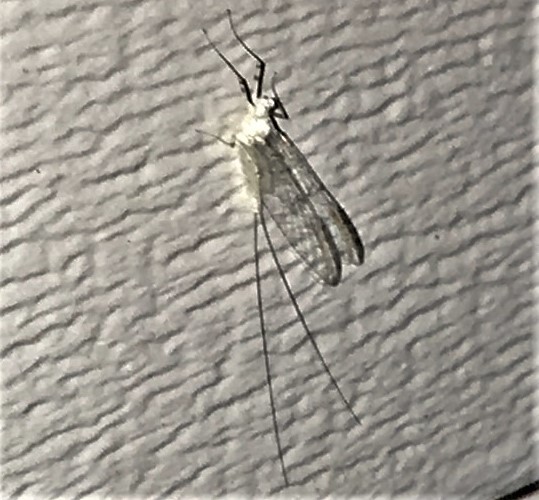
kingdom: Animalia
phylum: Arthropoda
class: Insecta
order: Ephemeroptera
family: Heptageniidae
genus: Stenonema
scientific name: Stenonema femoratum
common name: Dark cahill
